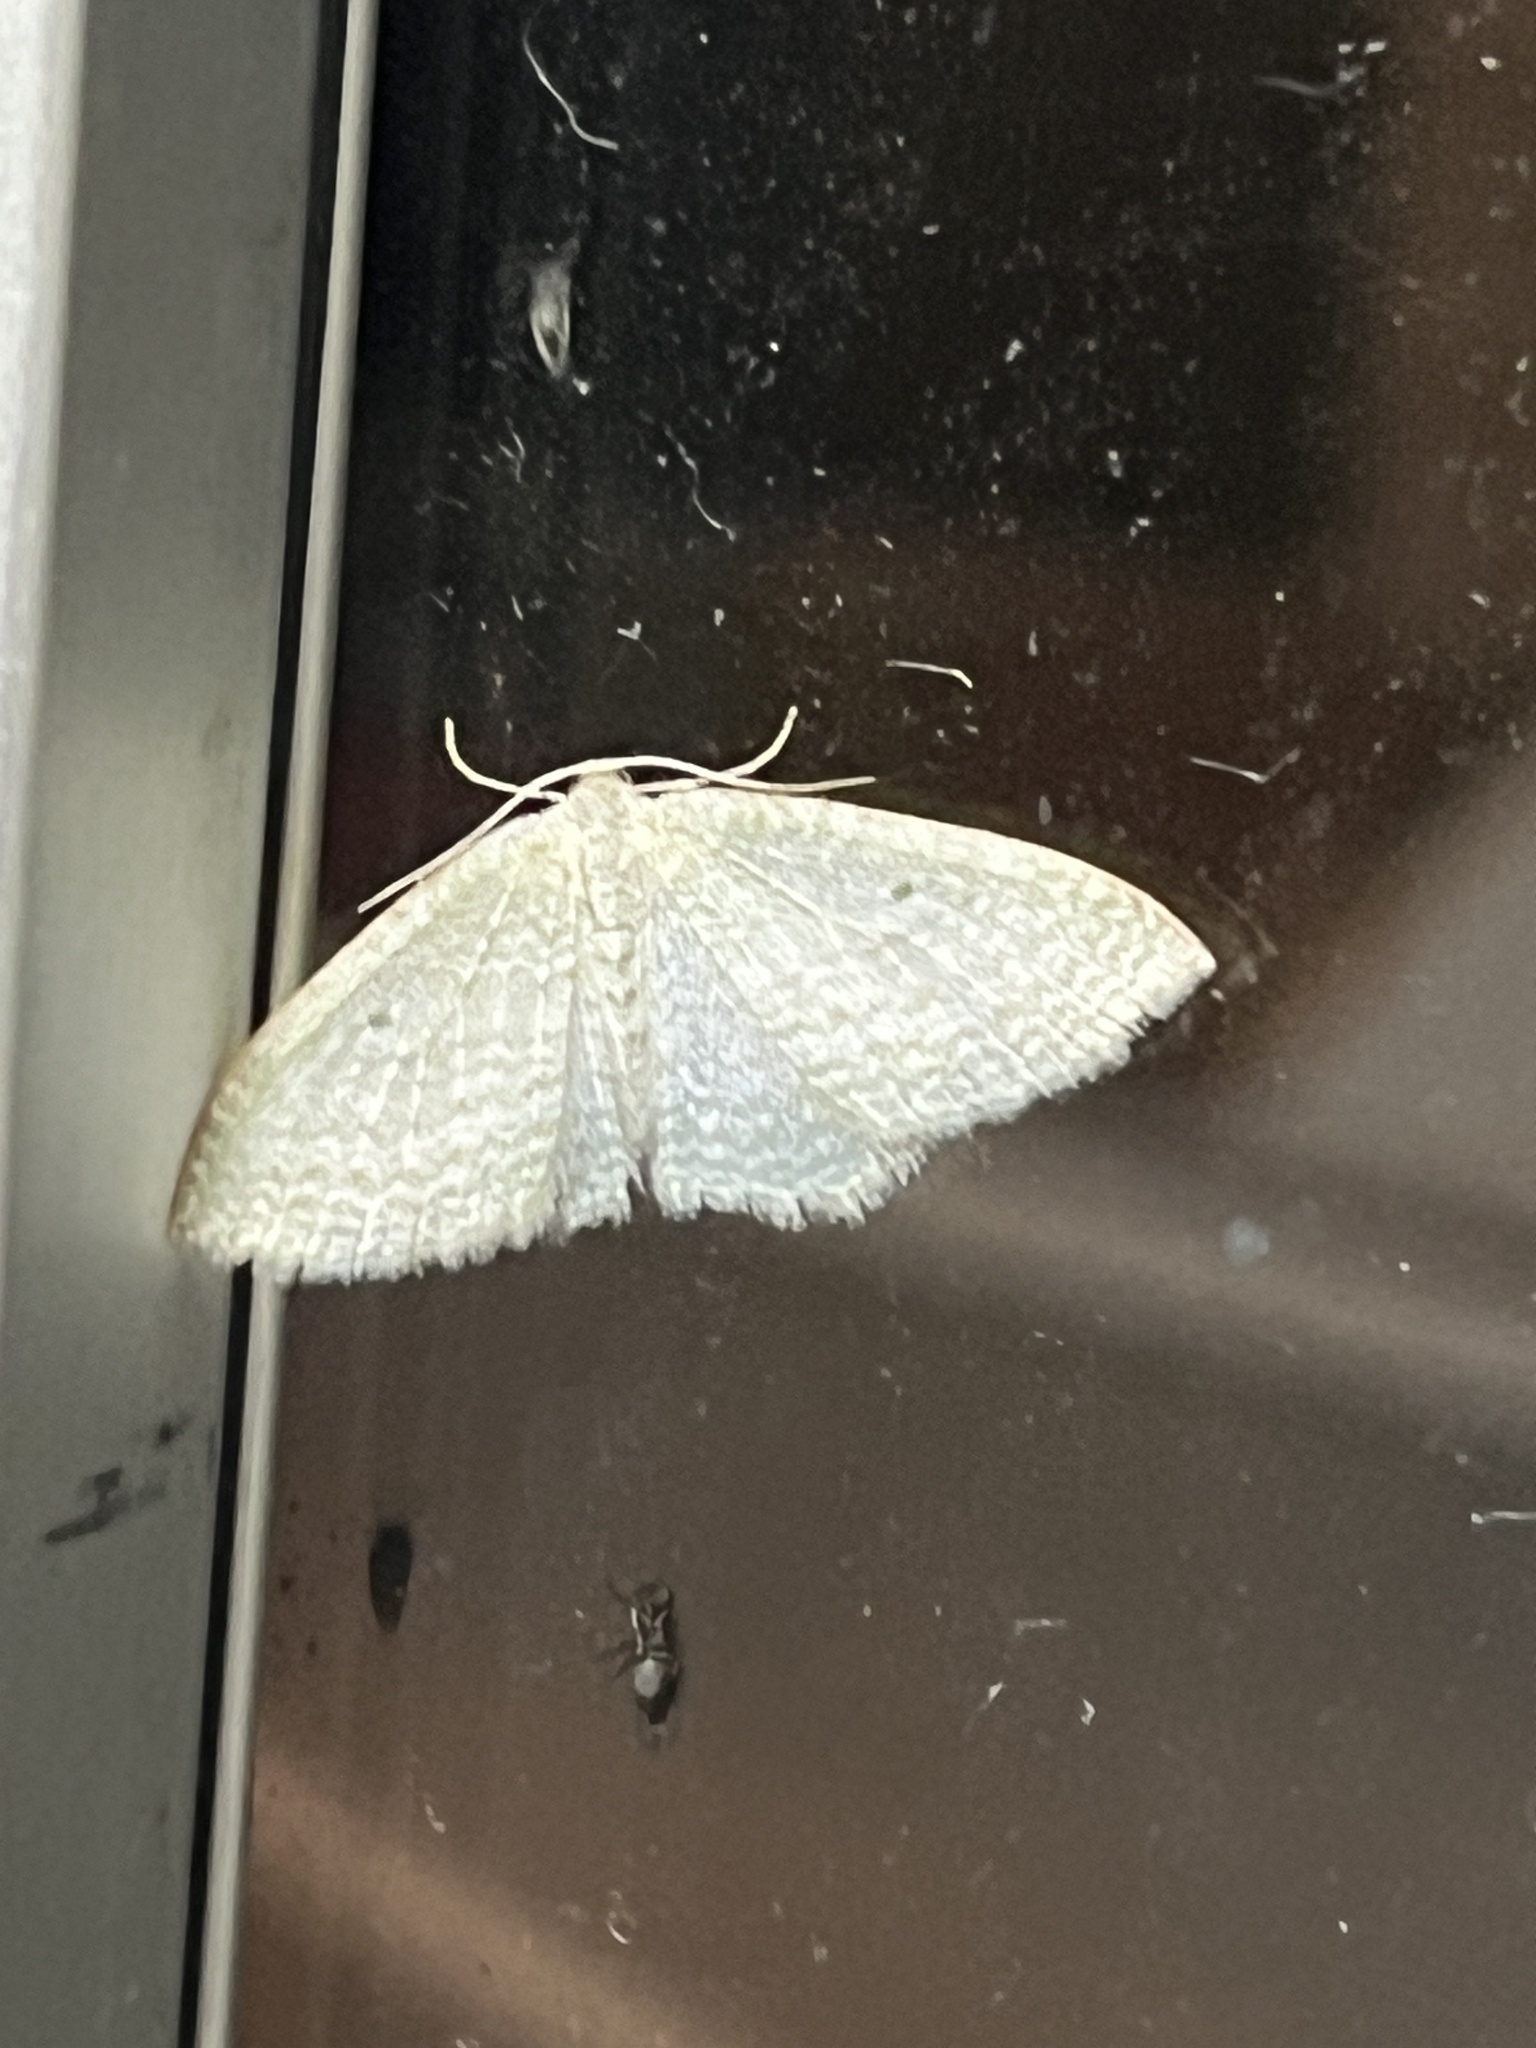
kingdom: Animalia
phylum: Arthropoda
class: Insecta
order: Lepidoptera
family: Geometridae
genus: Poecilasthena
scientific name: Poecilasthena pulchraria
